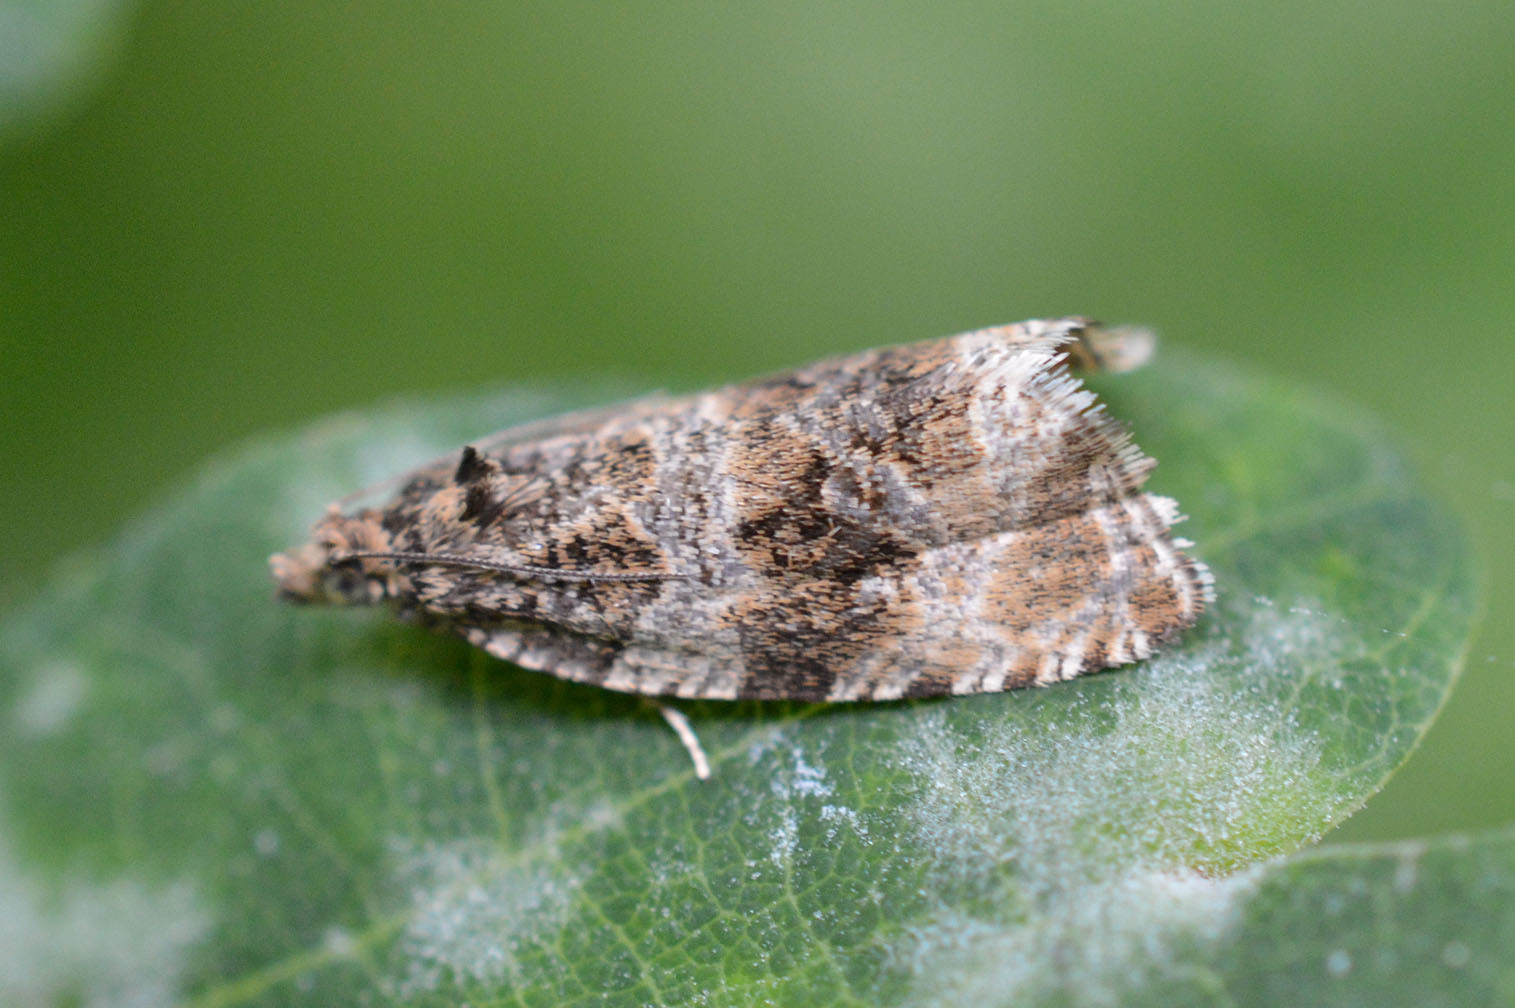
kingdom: Animalia
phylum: Arthropoda
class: Insecta
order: Lepidoptera
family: Tortricidae
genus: Syricoris
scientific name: Syricoris lacunana
